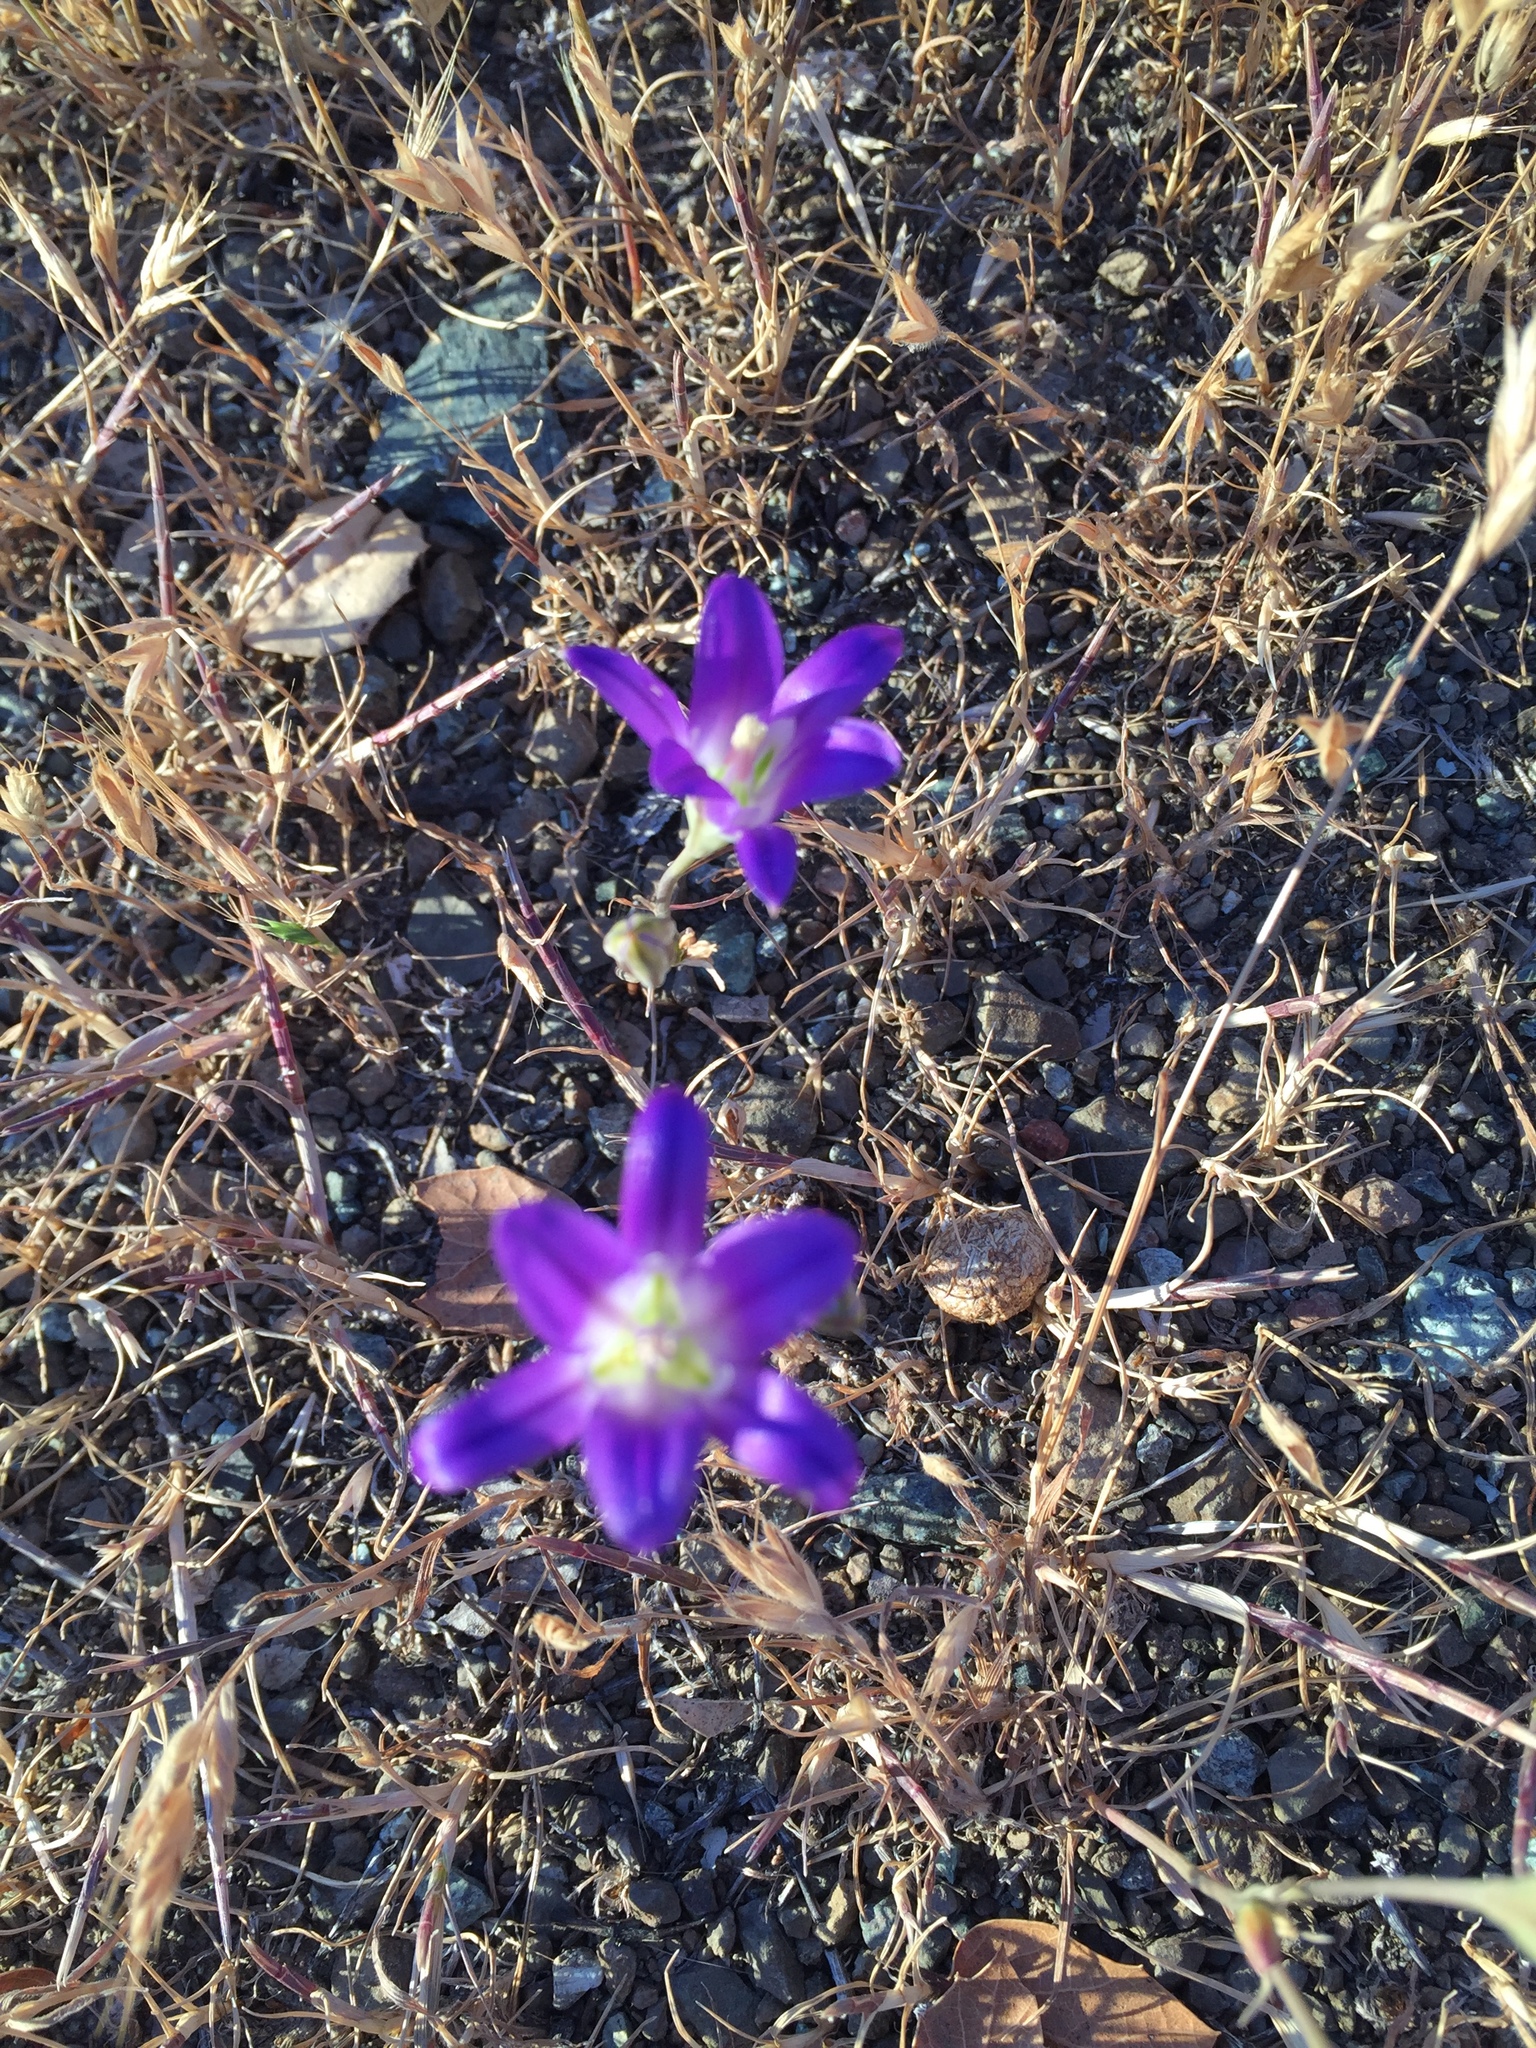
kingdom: Plantae
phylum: Tracheophyta
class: Liliopsida
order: Asparagales
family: Asparagaceae
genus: Brodiaea
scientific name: Brodiaea elegans
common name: Elegant cluster-lily
